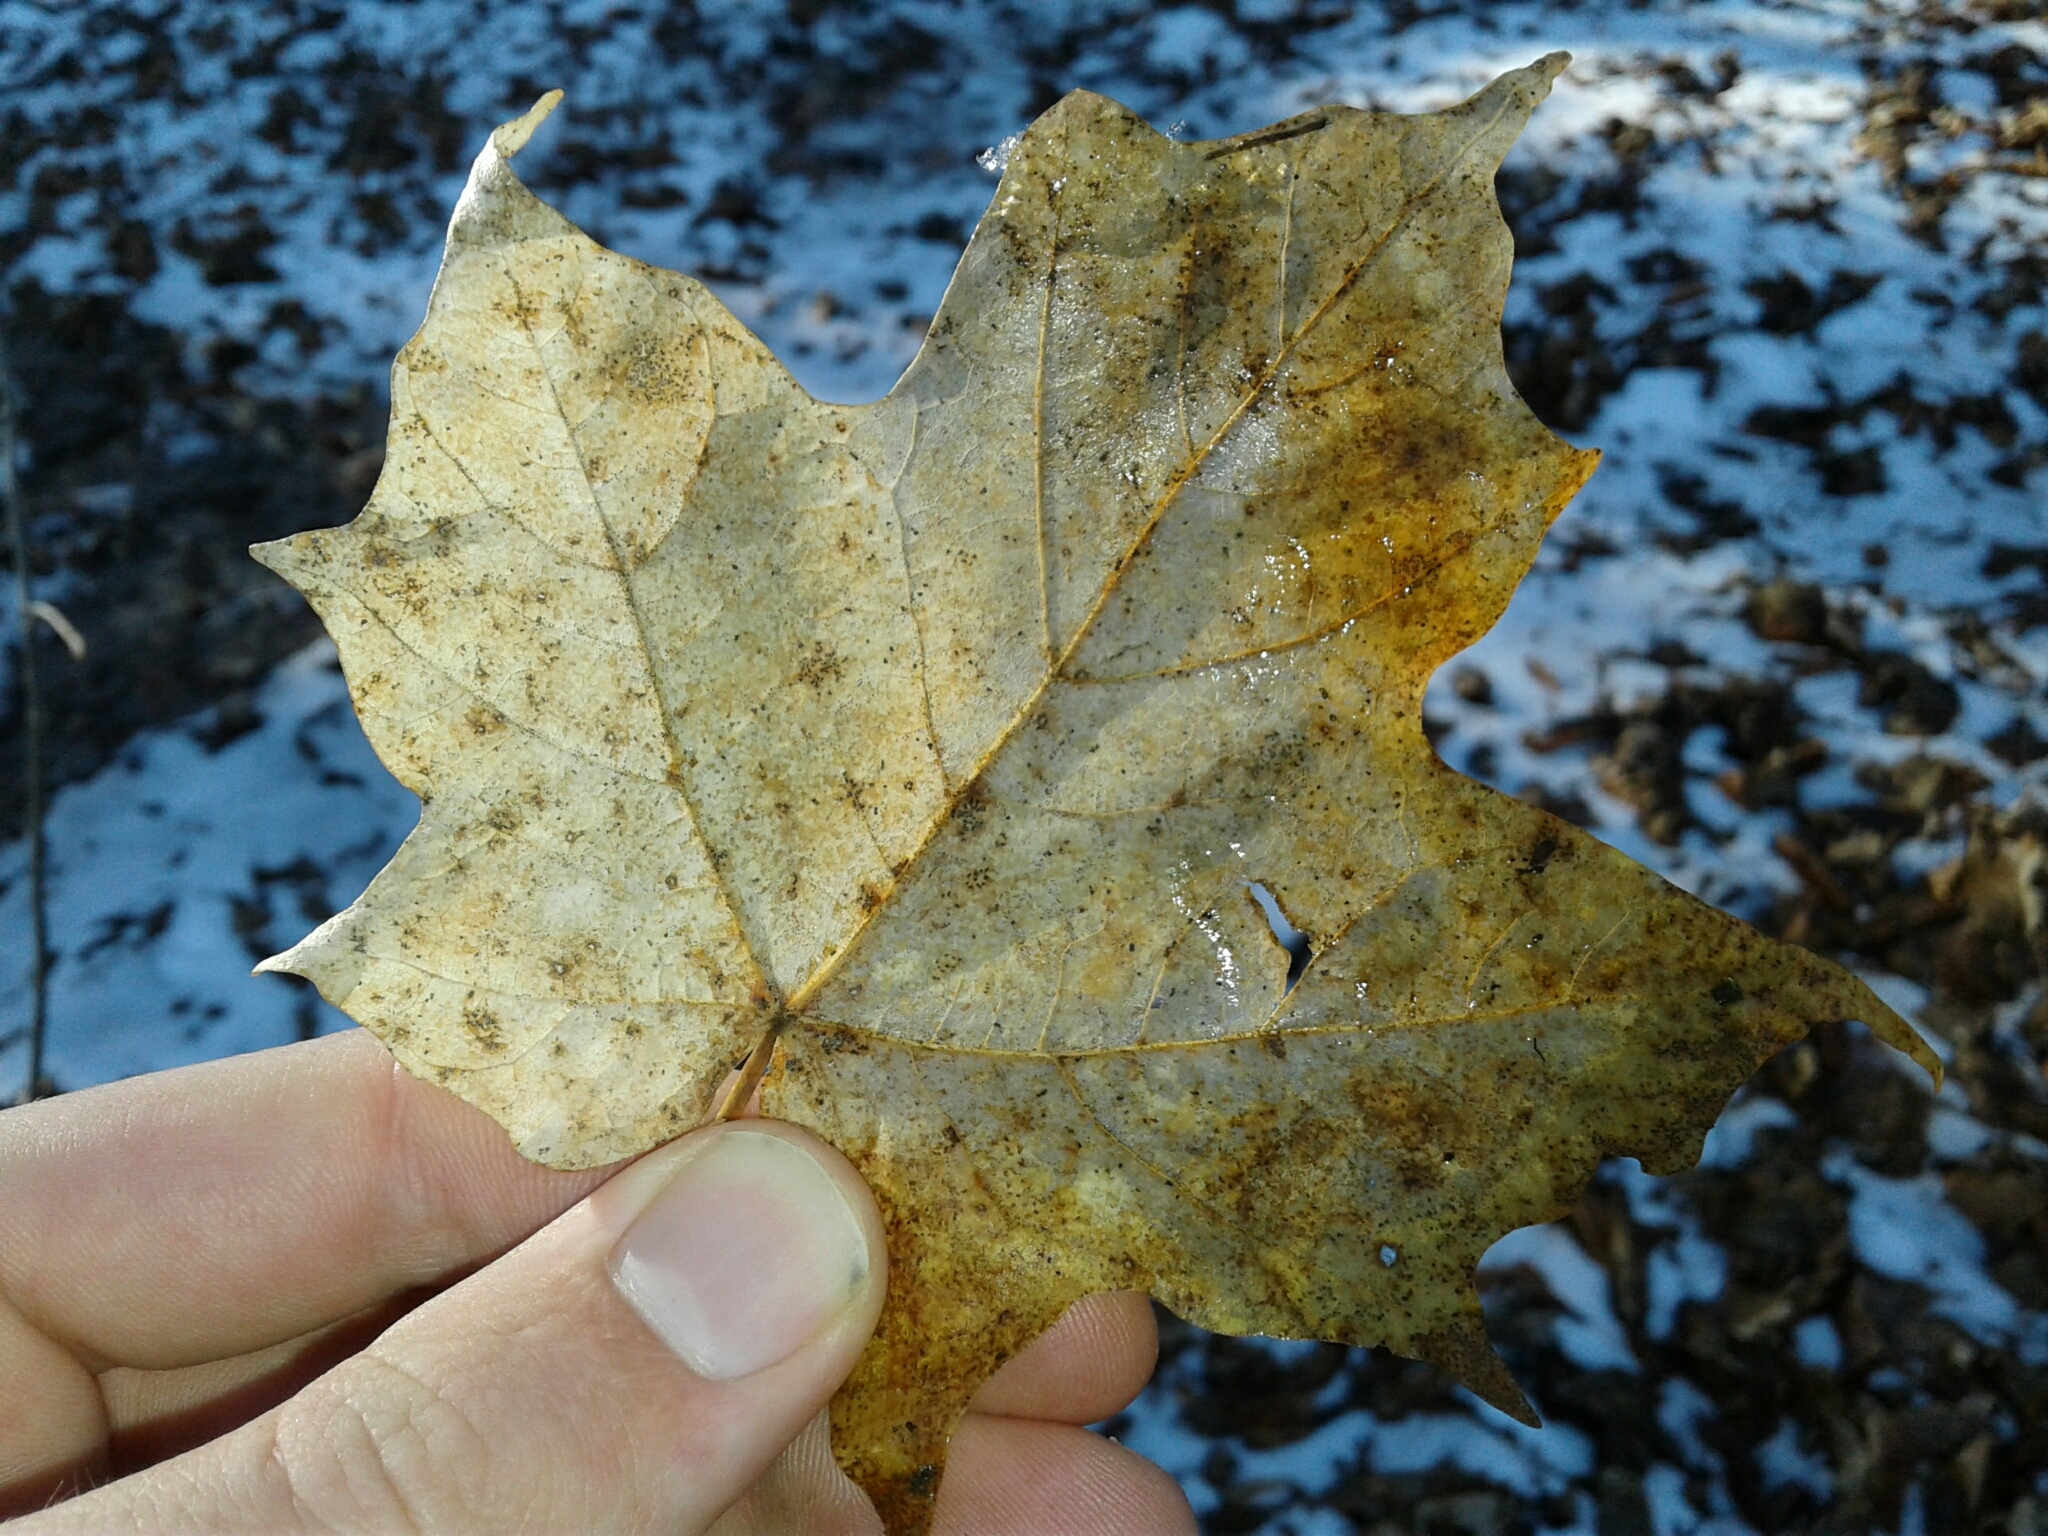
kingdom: Plantae
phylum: Tracheophyta
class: Magnoliopsida
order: Sapindales
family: Sapindaceae
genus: Acer
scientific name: Acer saccharum
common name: Sugar maple
